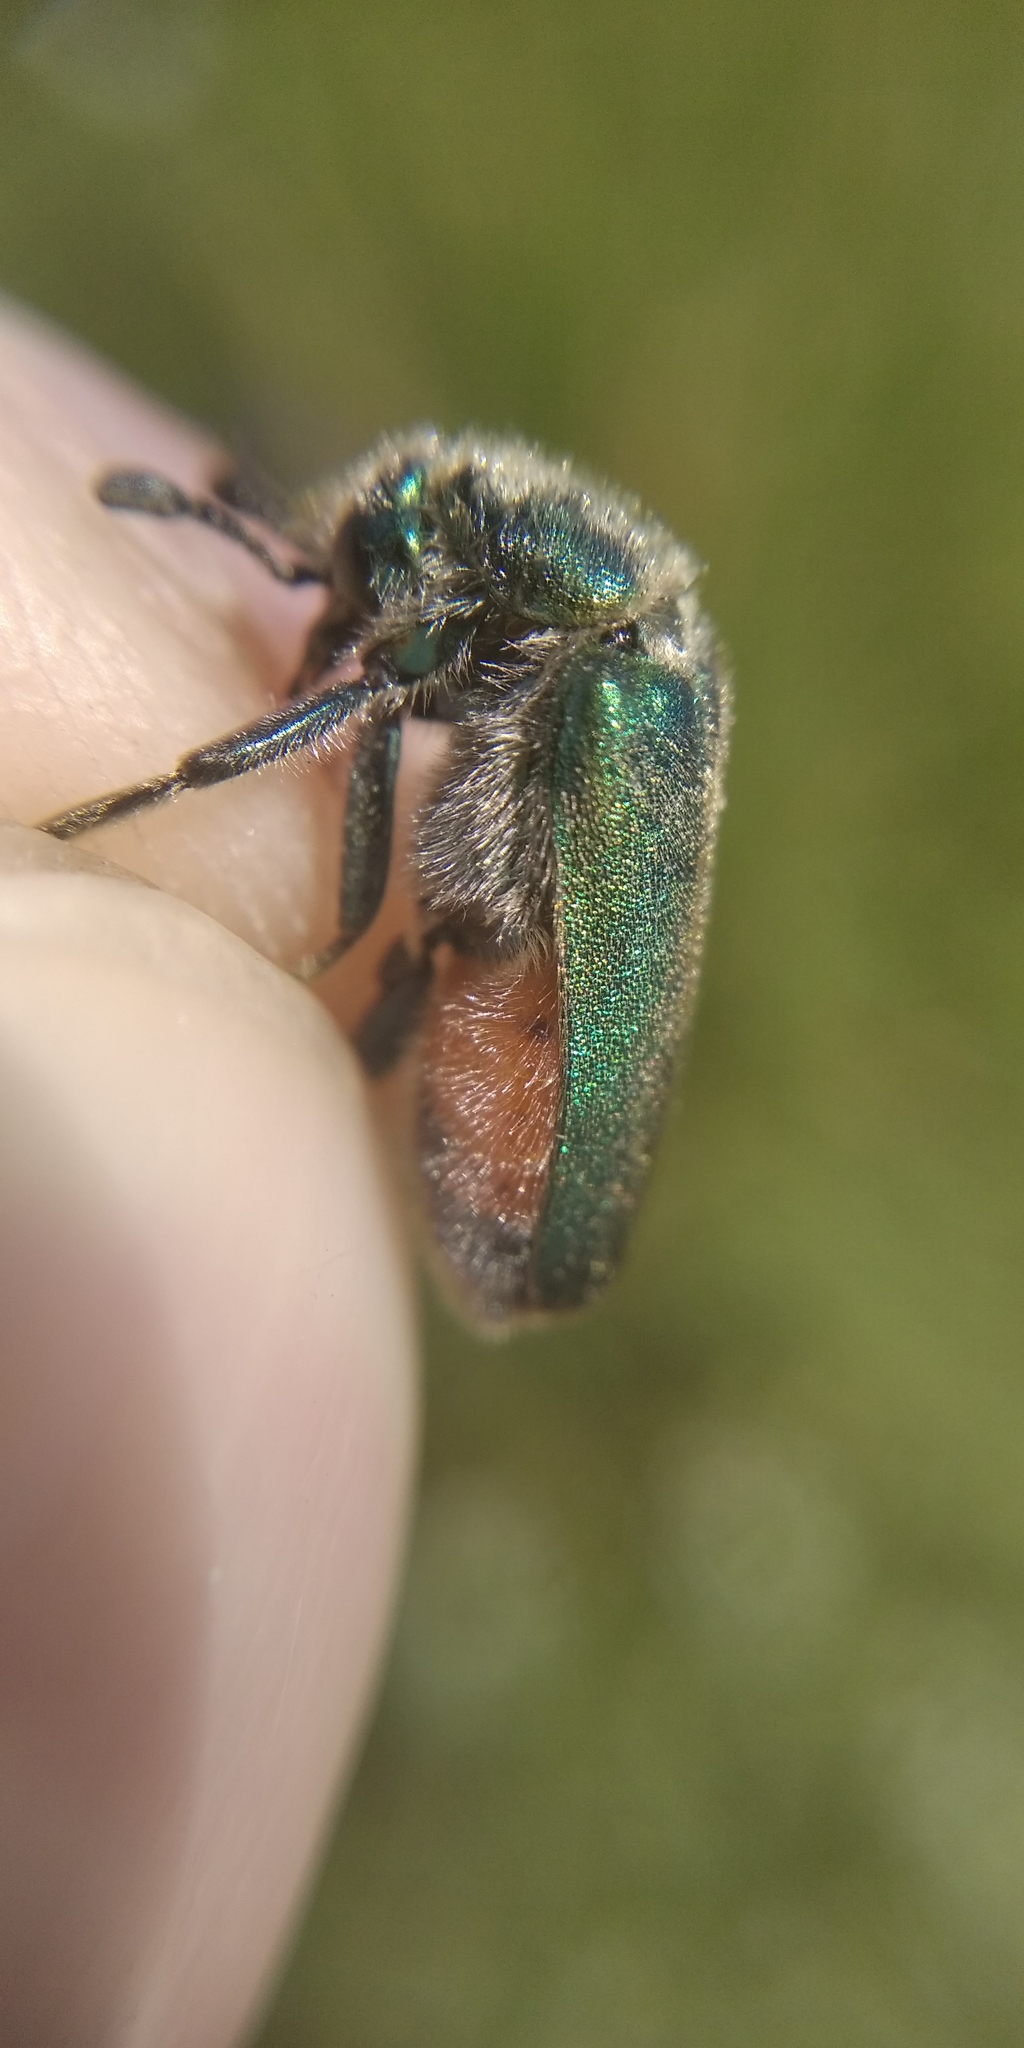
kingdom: Animalia
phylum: Arthropoda
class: Insecta
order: Coleoptera
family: Meloidae
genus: Cerocoma
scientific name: Cerocoma schreberi
